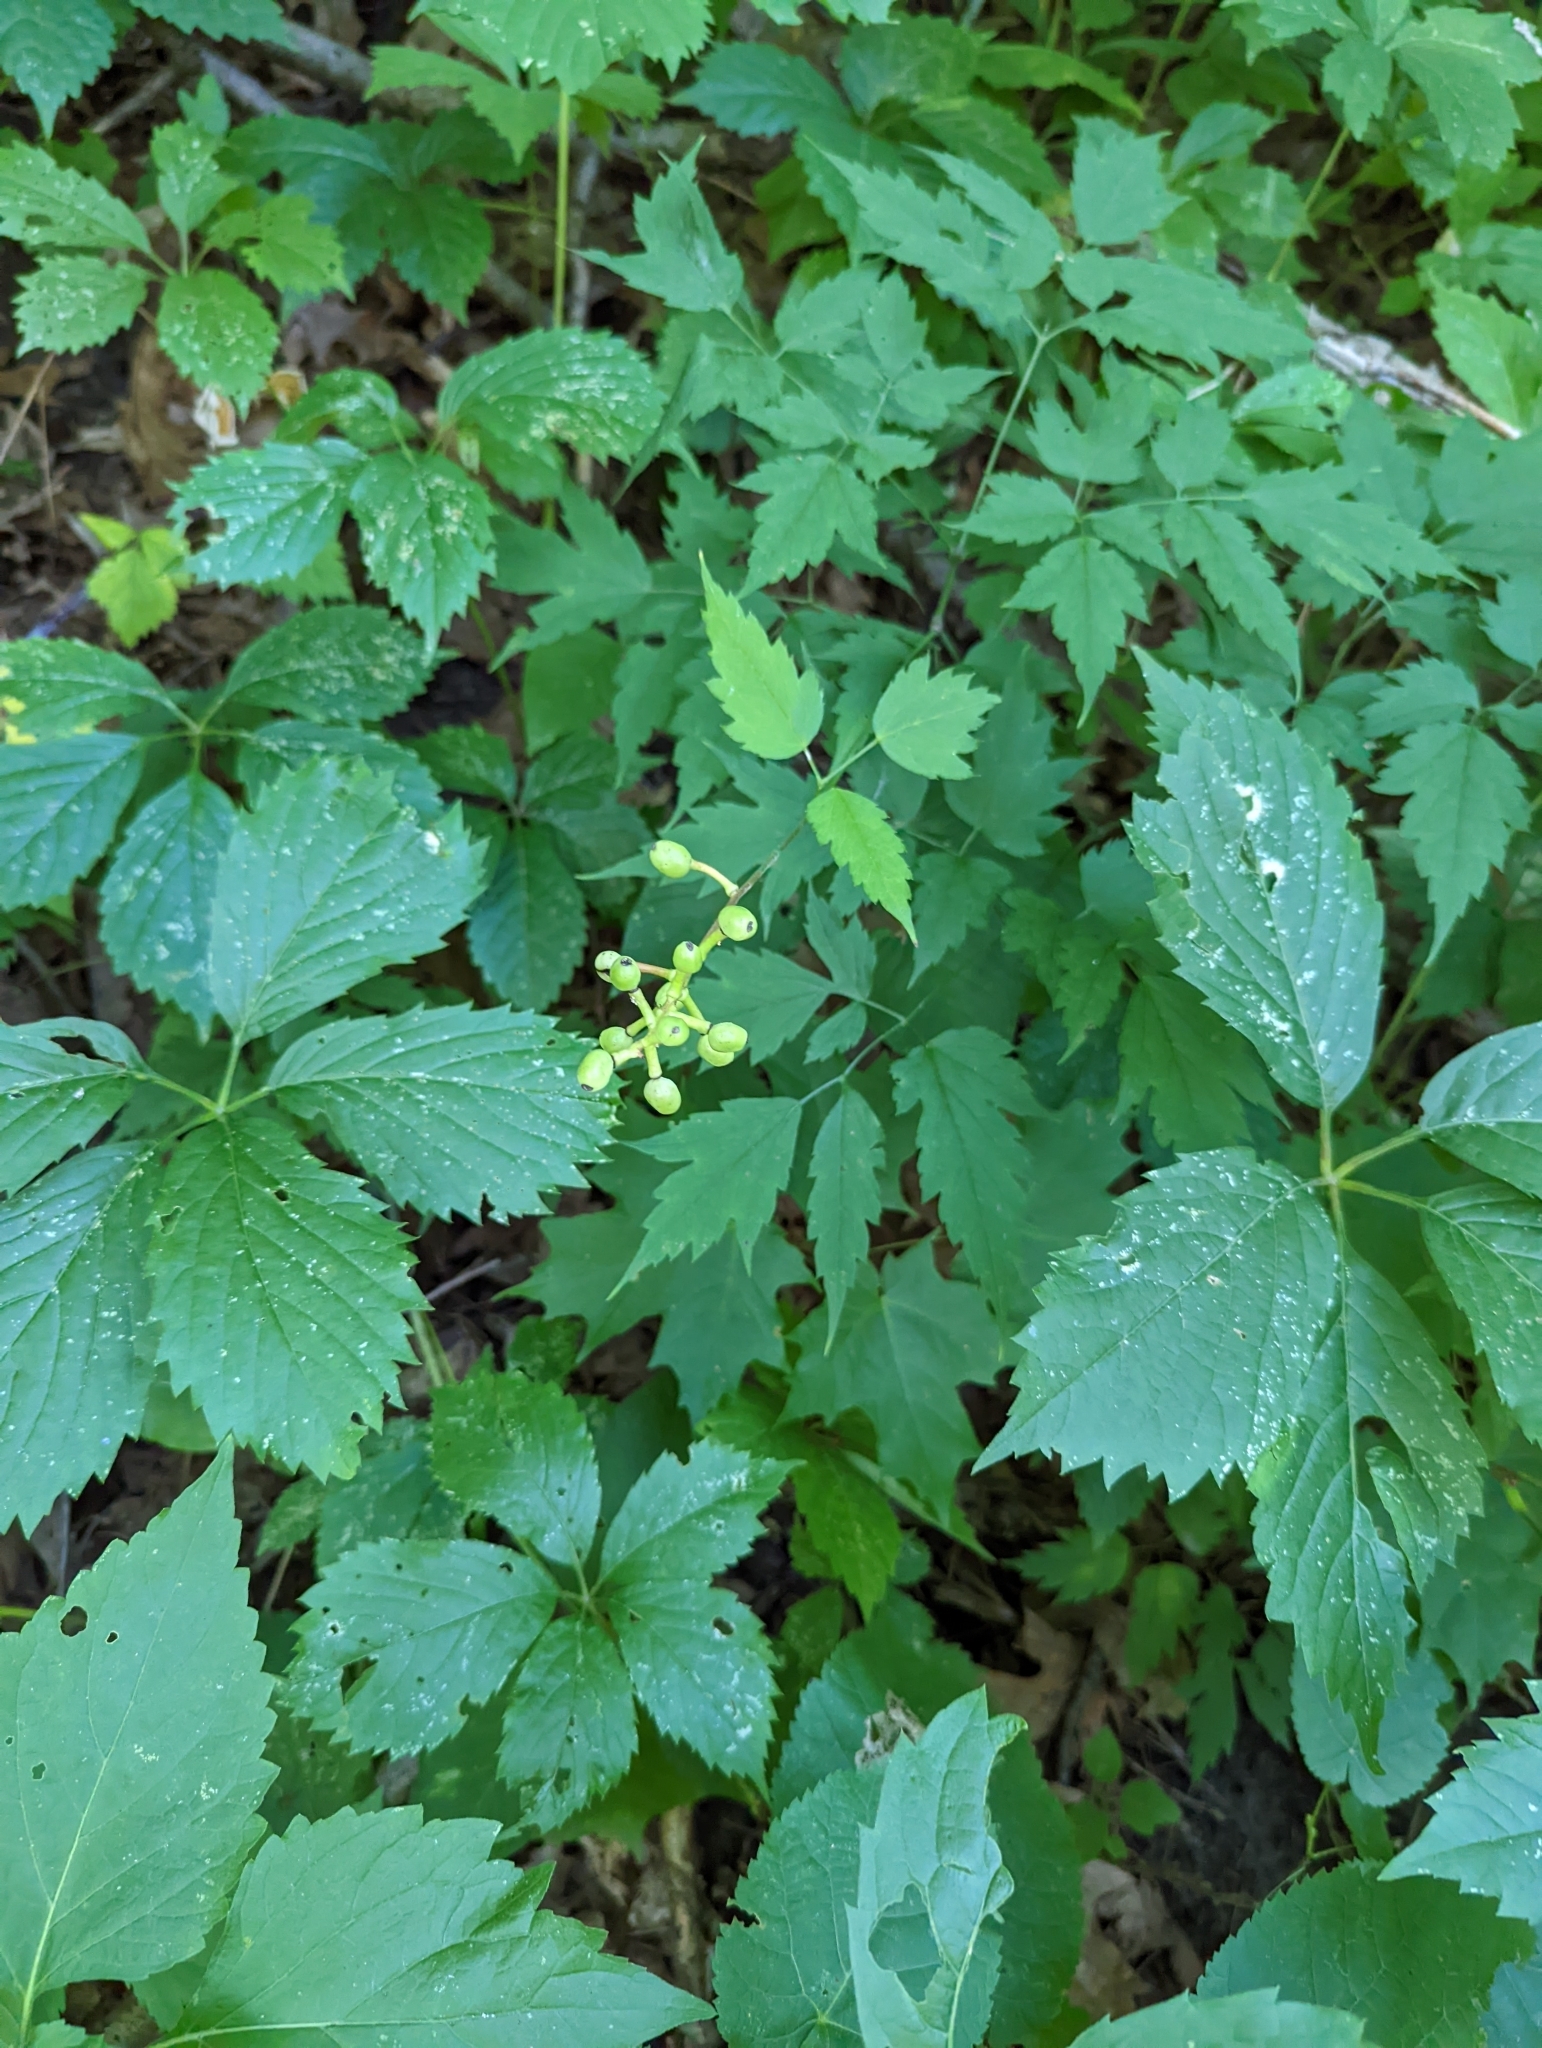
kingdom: Plantae
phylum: Tracheophyta
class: Magnoliopsida
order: Ranunculales
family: Ranunculaceae
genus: Actaea
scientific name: Actaea pachypoda
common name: Doll's-eyes
